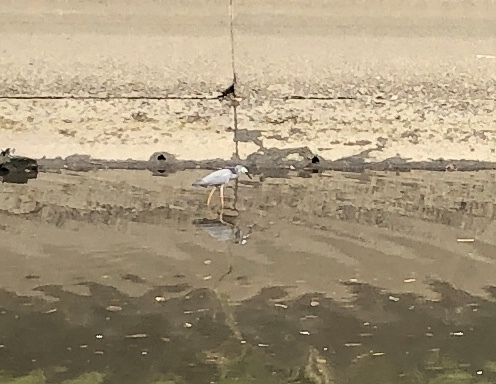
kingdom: Animalia
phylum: Chordata
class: Aves
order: Pelecaniformes
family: Ardeidae
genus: Egretta
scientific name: Egretta novaehollandiae
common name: White-faced heron
